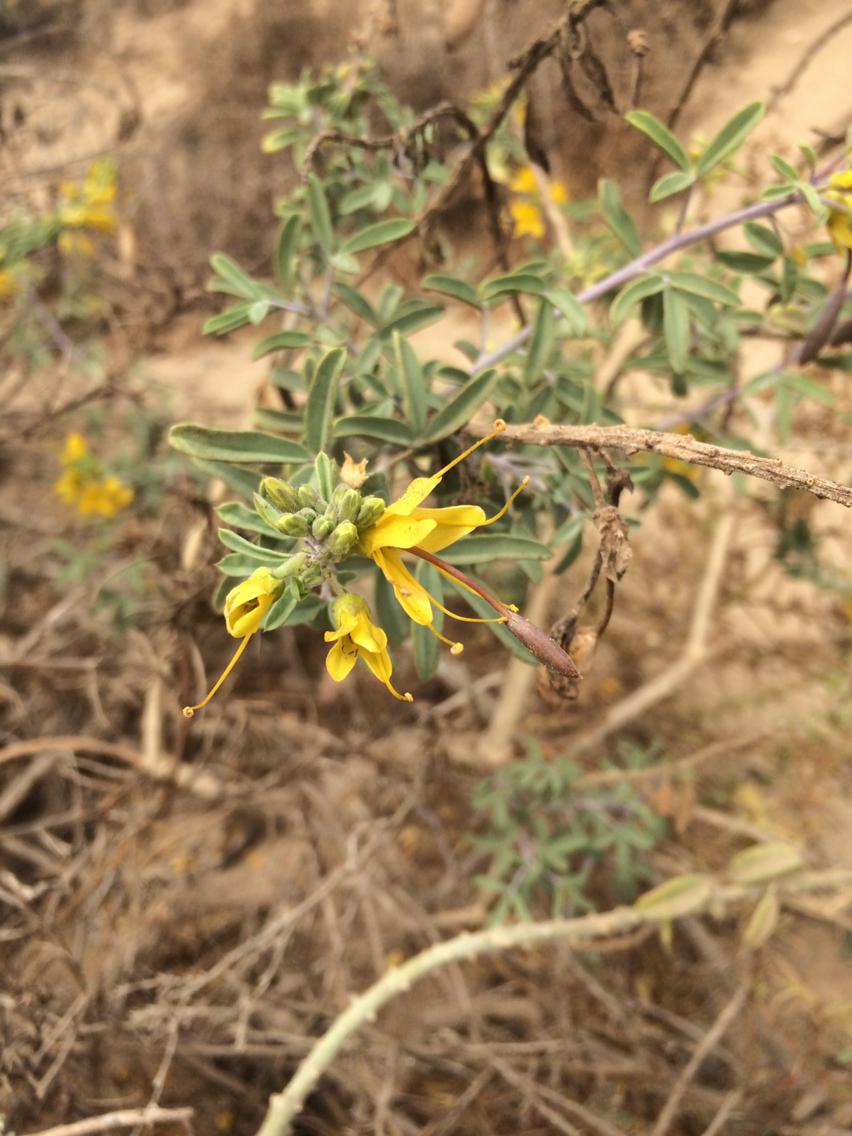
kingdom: Plantae
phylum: Tracheophyta
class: Magnoliopsida
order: Brassicales
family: Cleomaceae
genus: Cleomella
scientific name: Cleomella arborea
